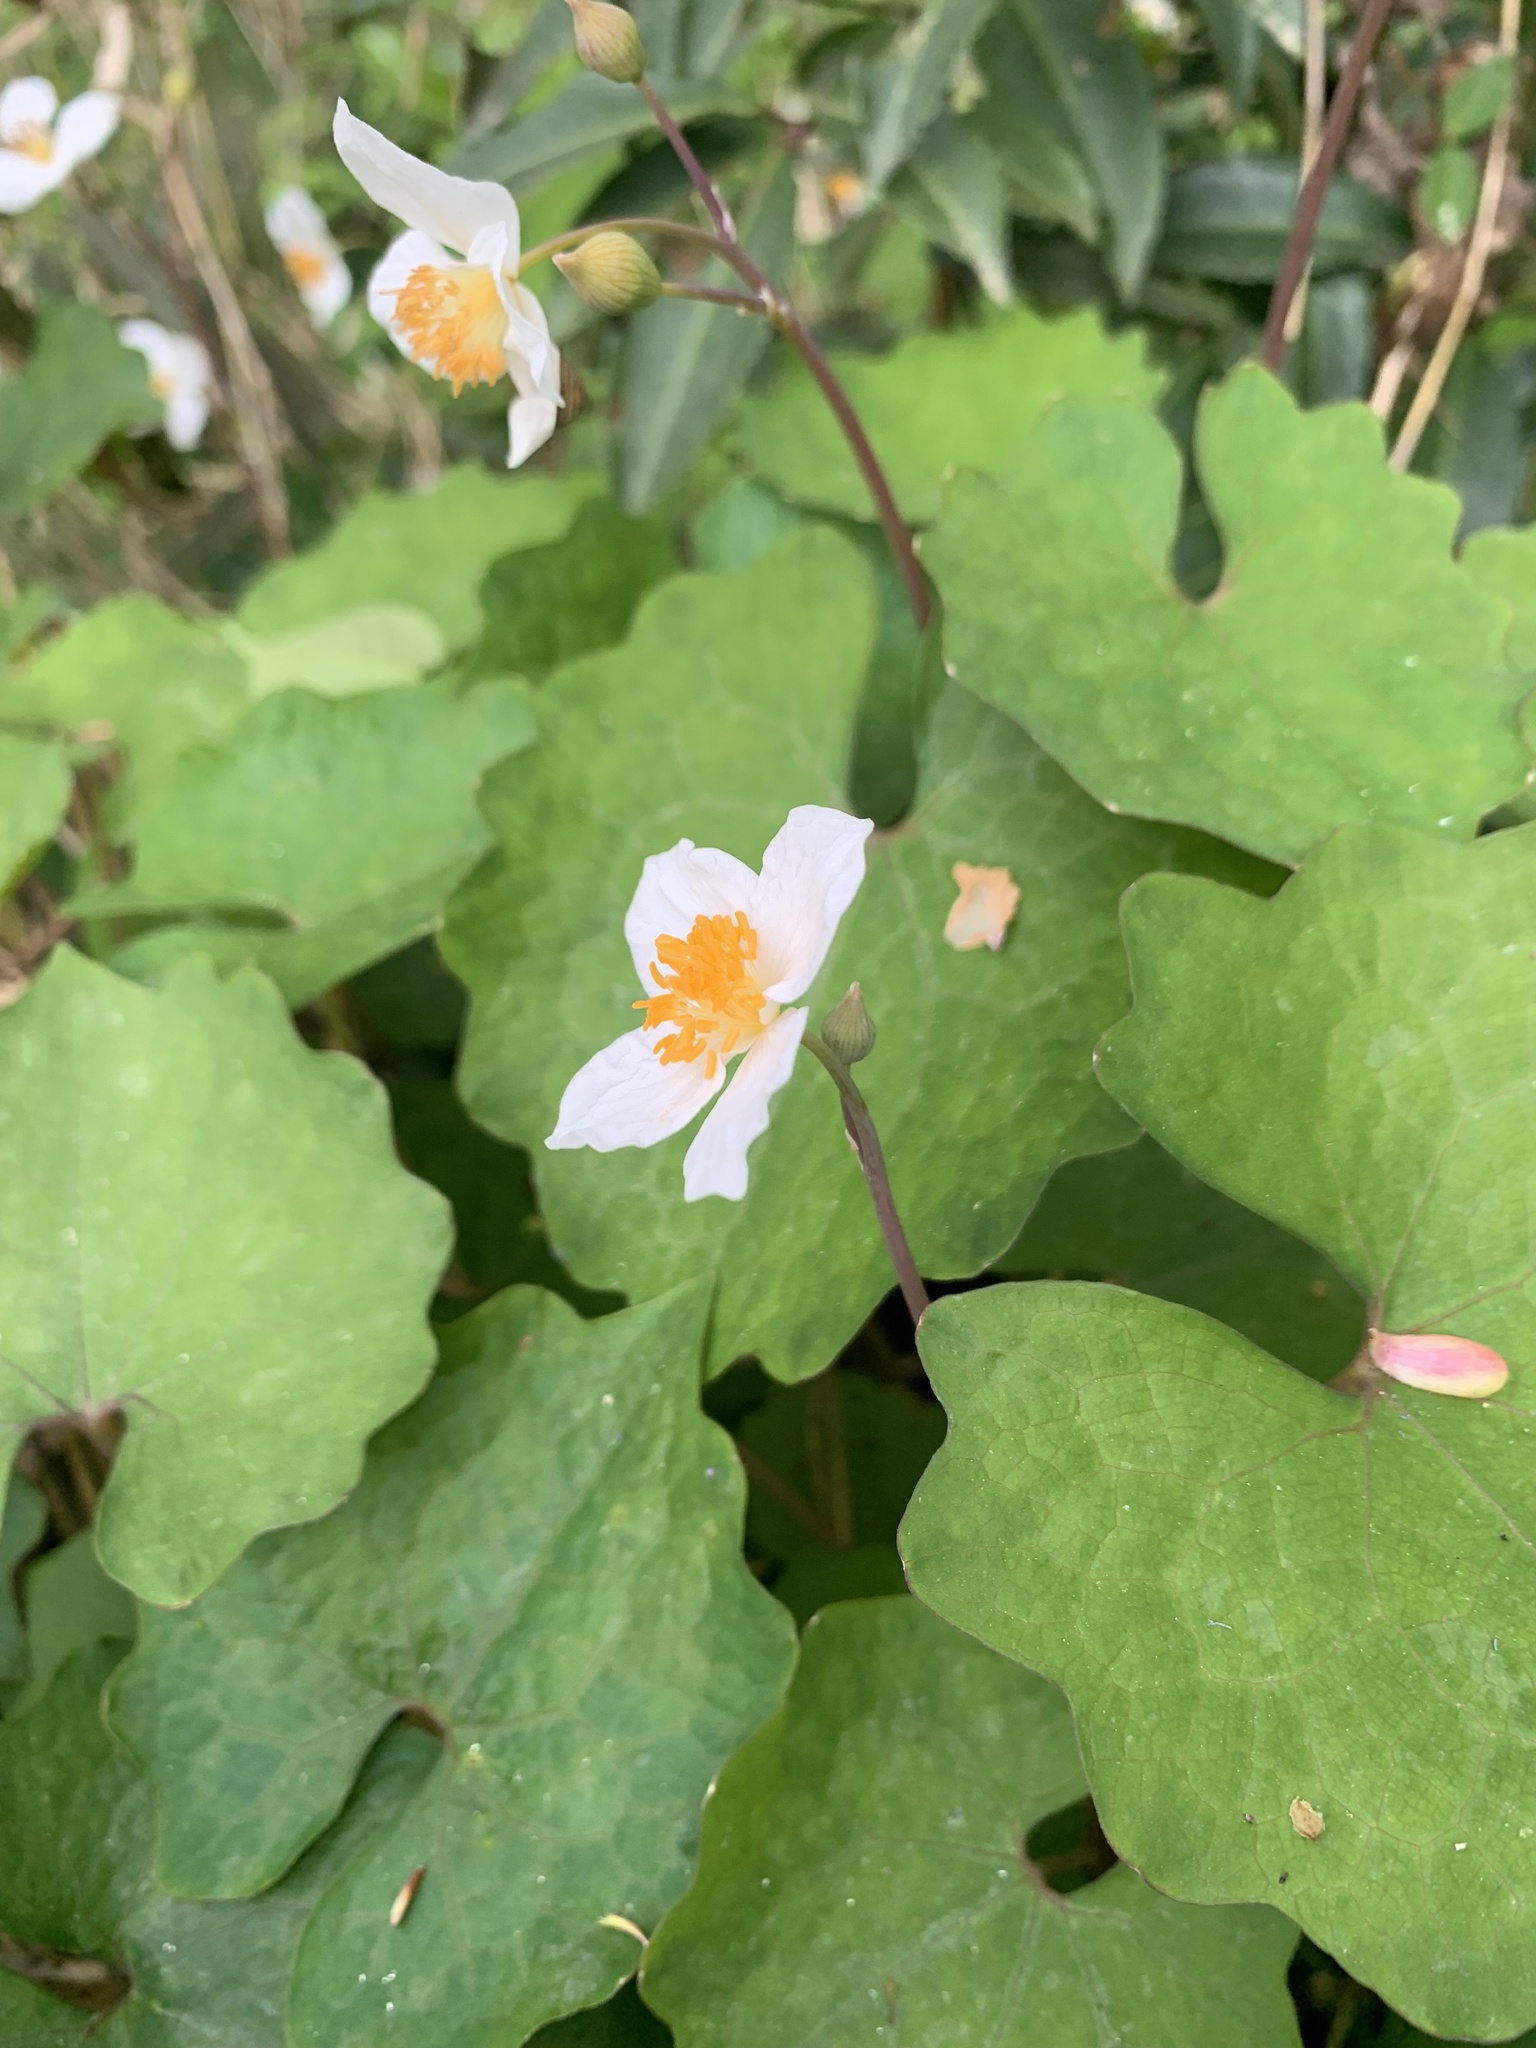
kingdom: Plantae
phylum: Tracheophyta
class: Magnoliopsida
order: Ranunculales
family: Papaveraceae
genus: Eomecon
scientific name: Eomecon chionantha
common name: Dawn-poppy
